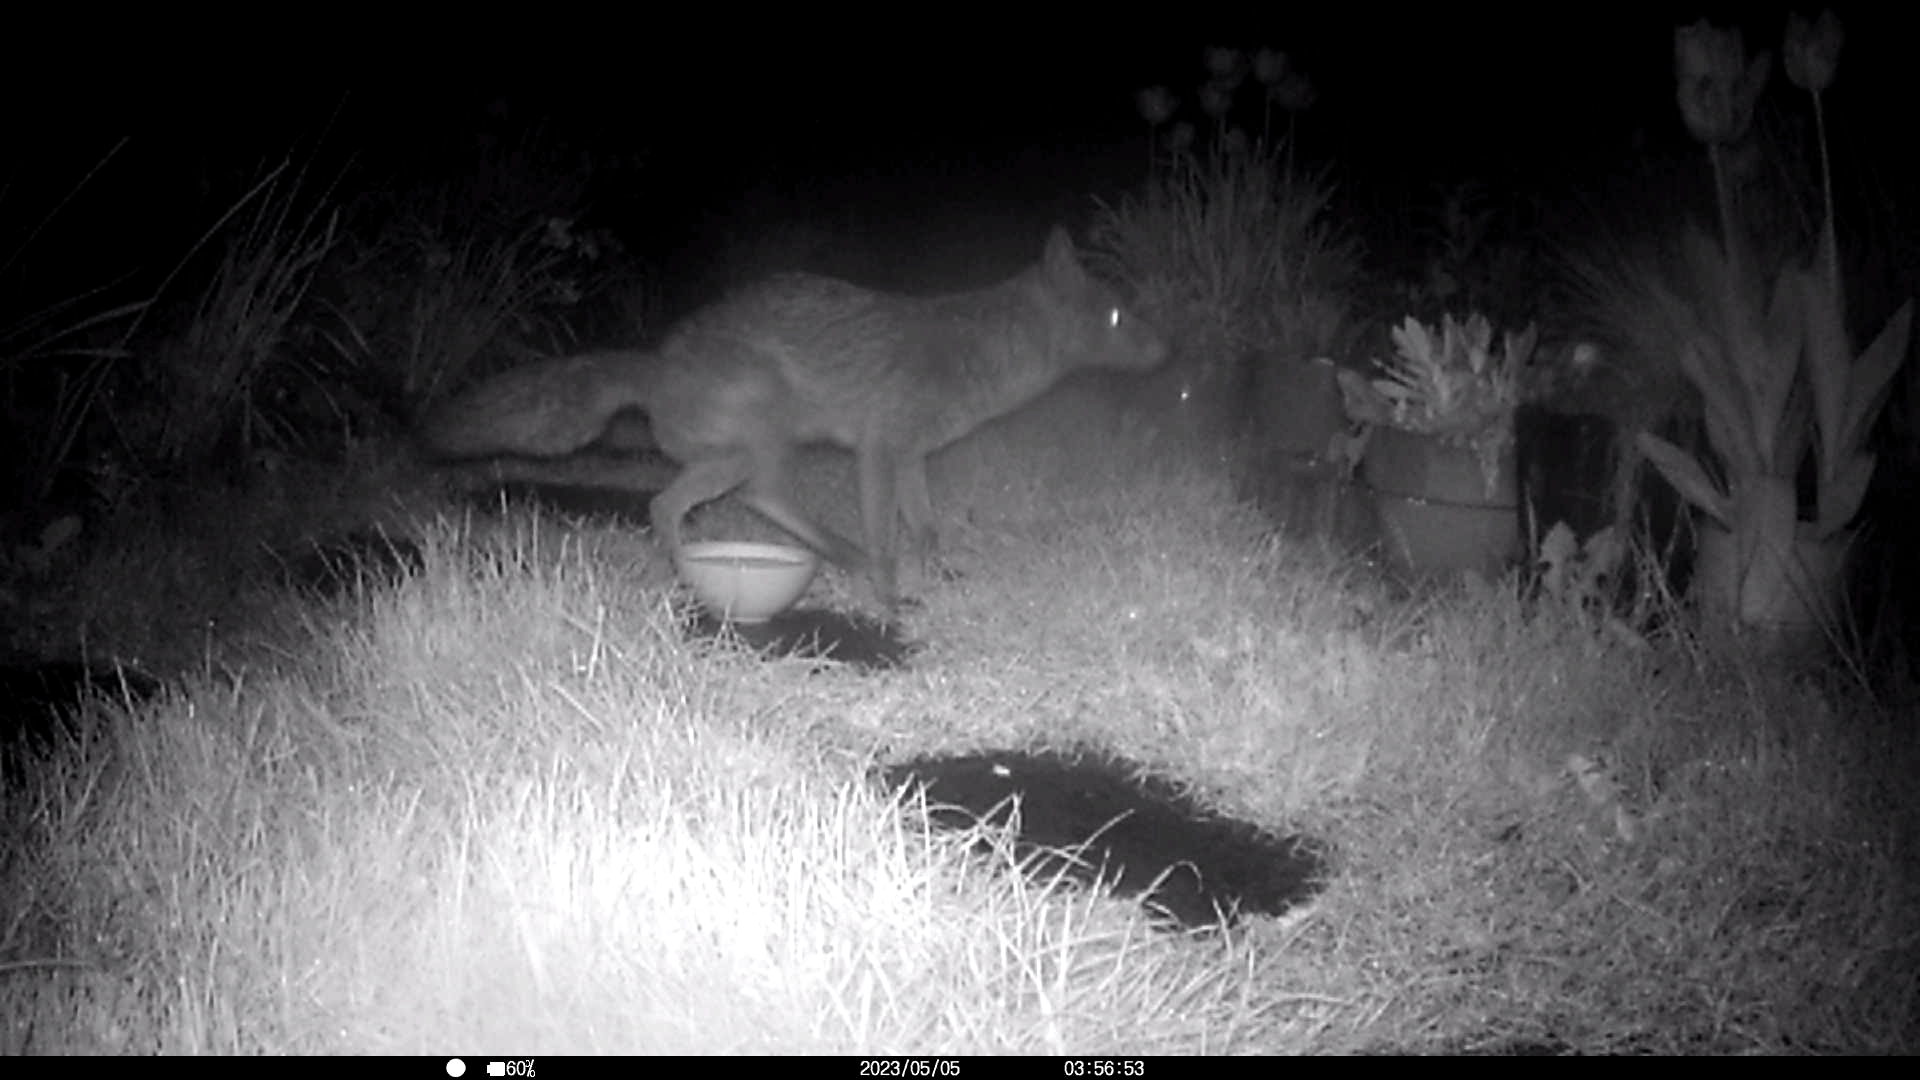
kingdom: Animalia
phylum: Chordata
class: Mammalia
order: Carnivora
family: Canidae
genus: Vulpes
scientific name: Vulpes vulpes
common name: Red fox
